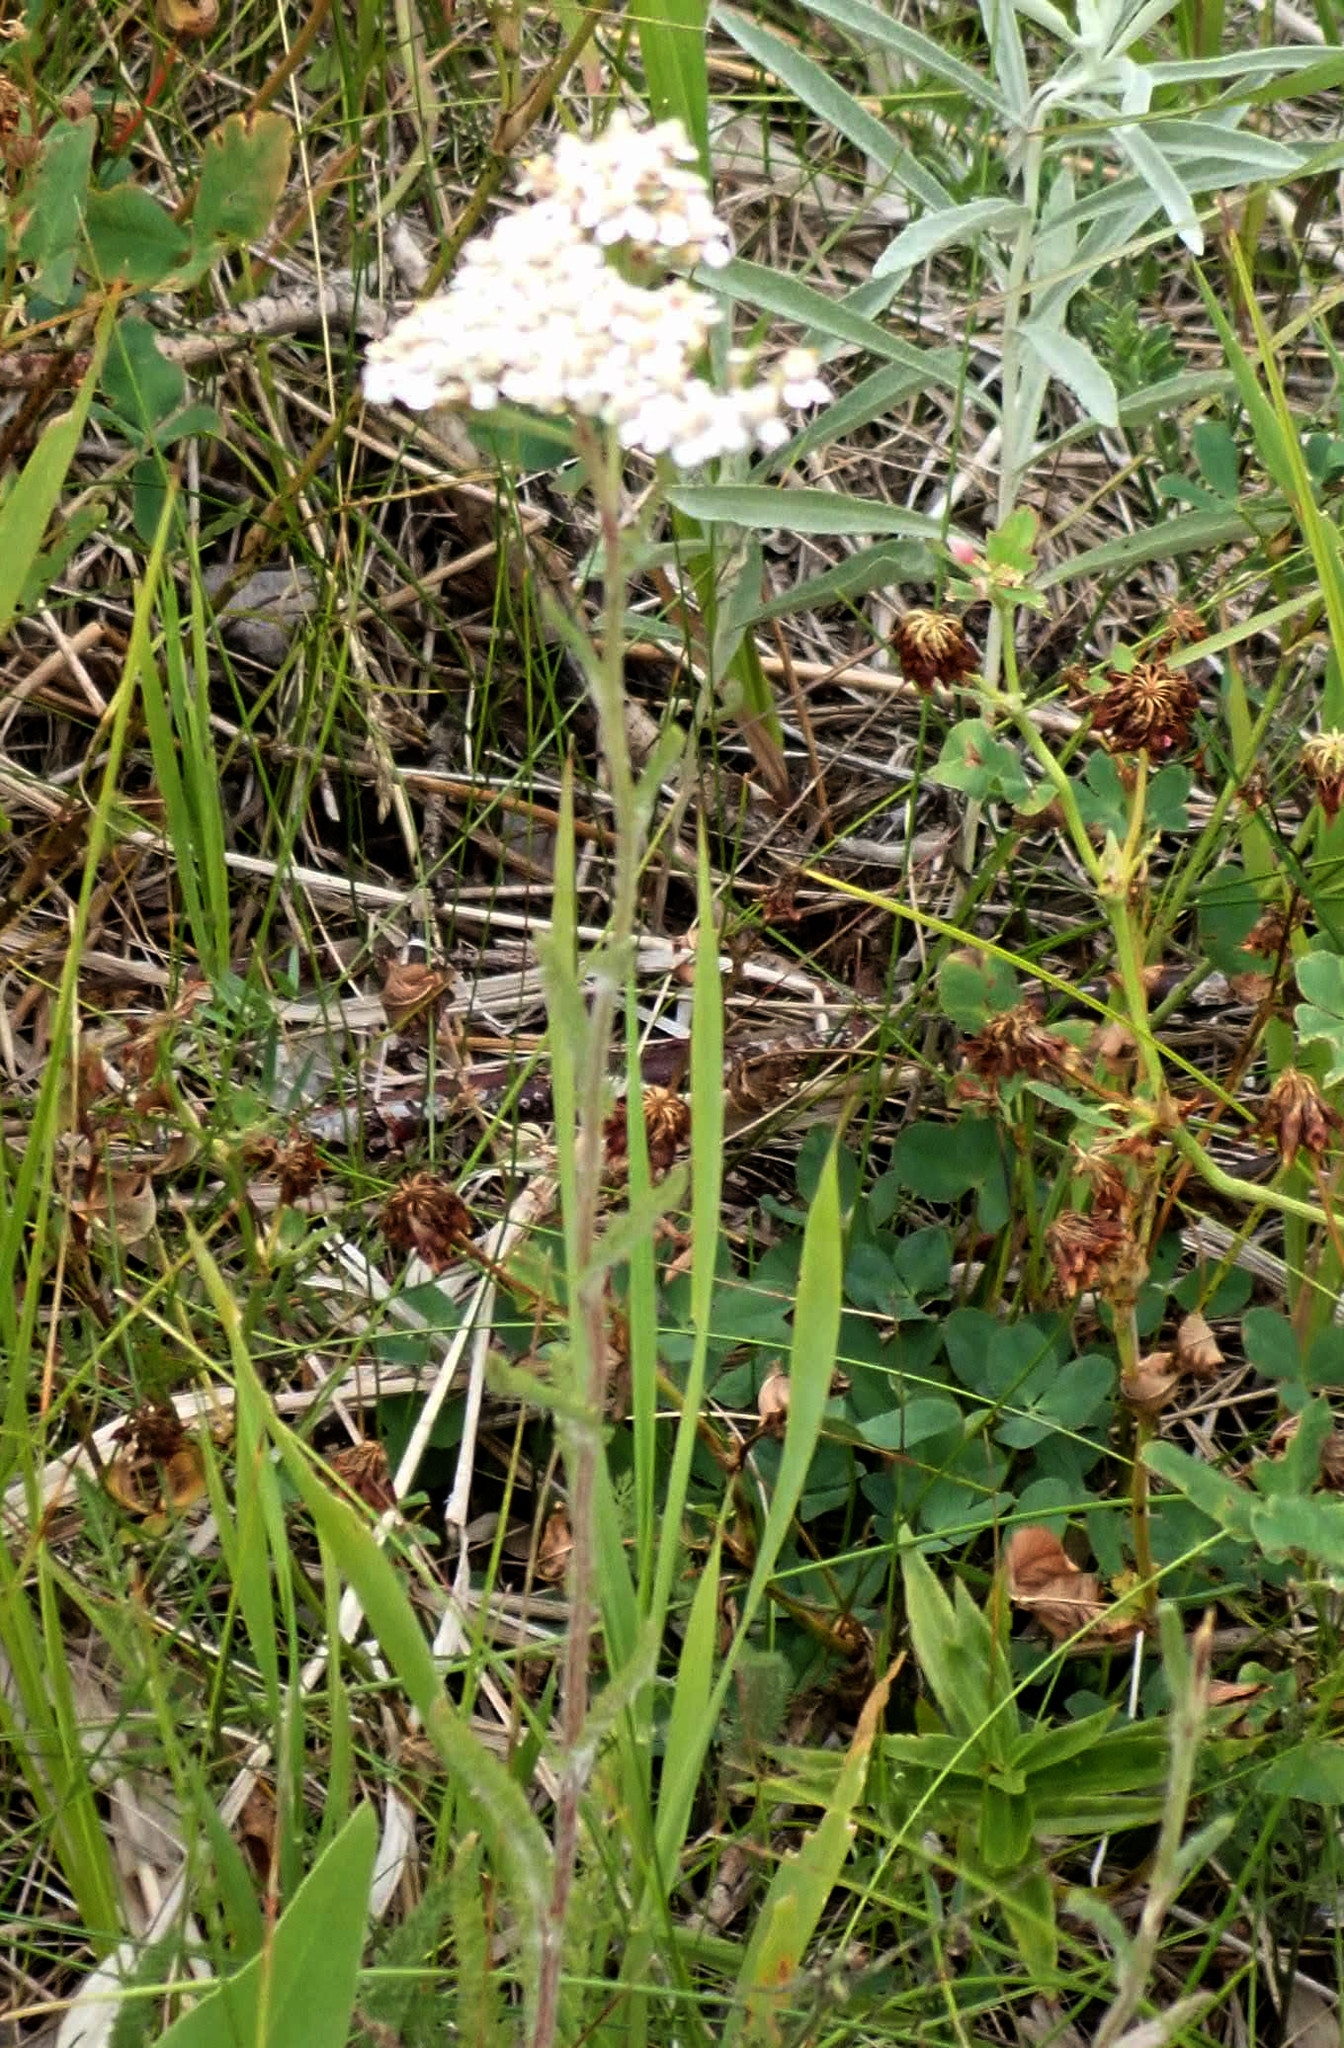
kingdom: Plantae
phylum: Tracheophyta
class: Magnoliopsida
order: Asterales
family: Asteraceae
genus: Achillea
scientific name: Achillea millefolium
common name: Yarrow
